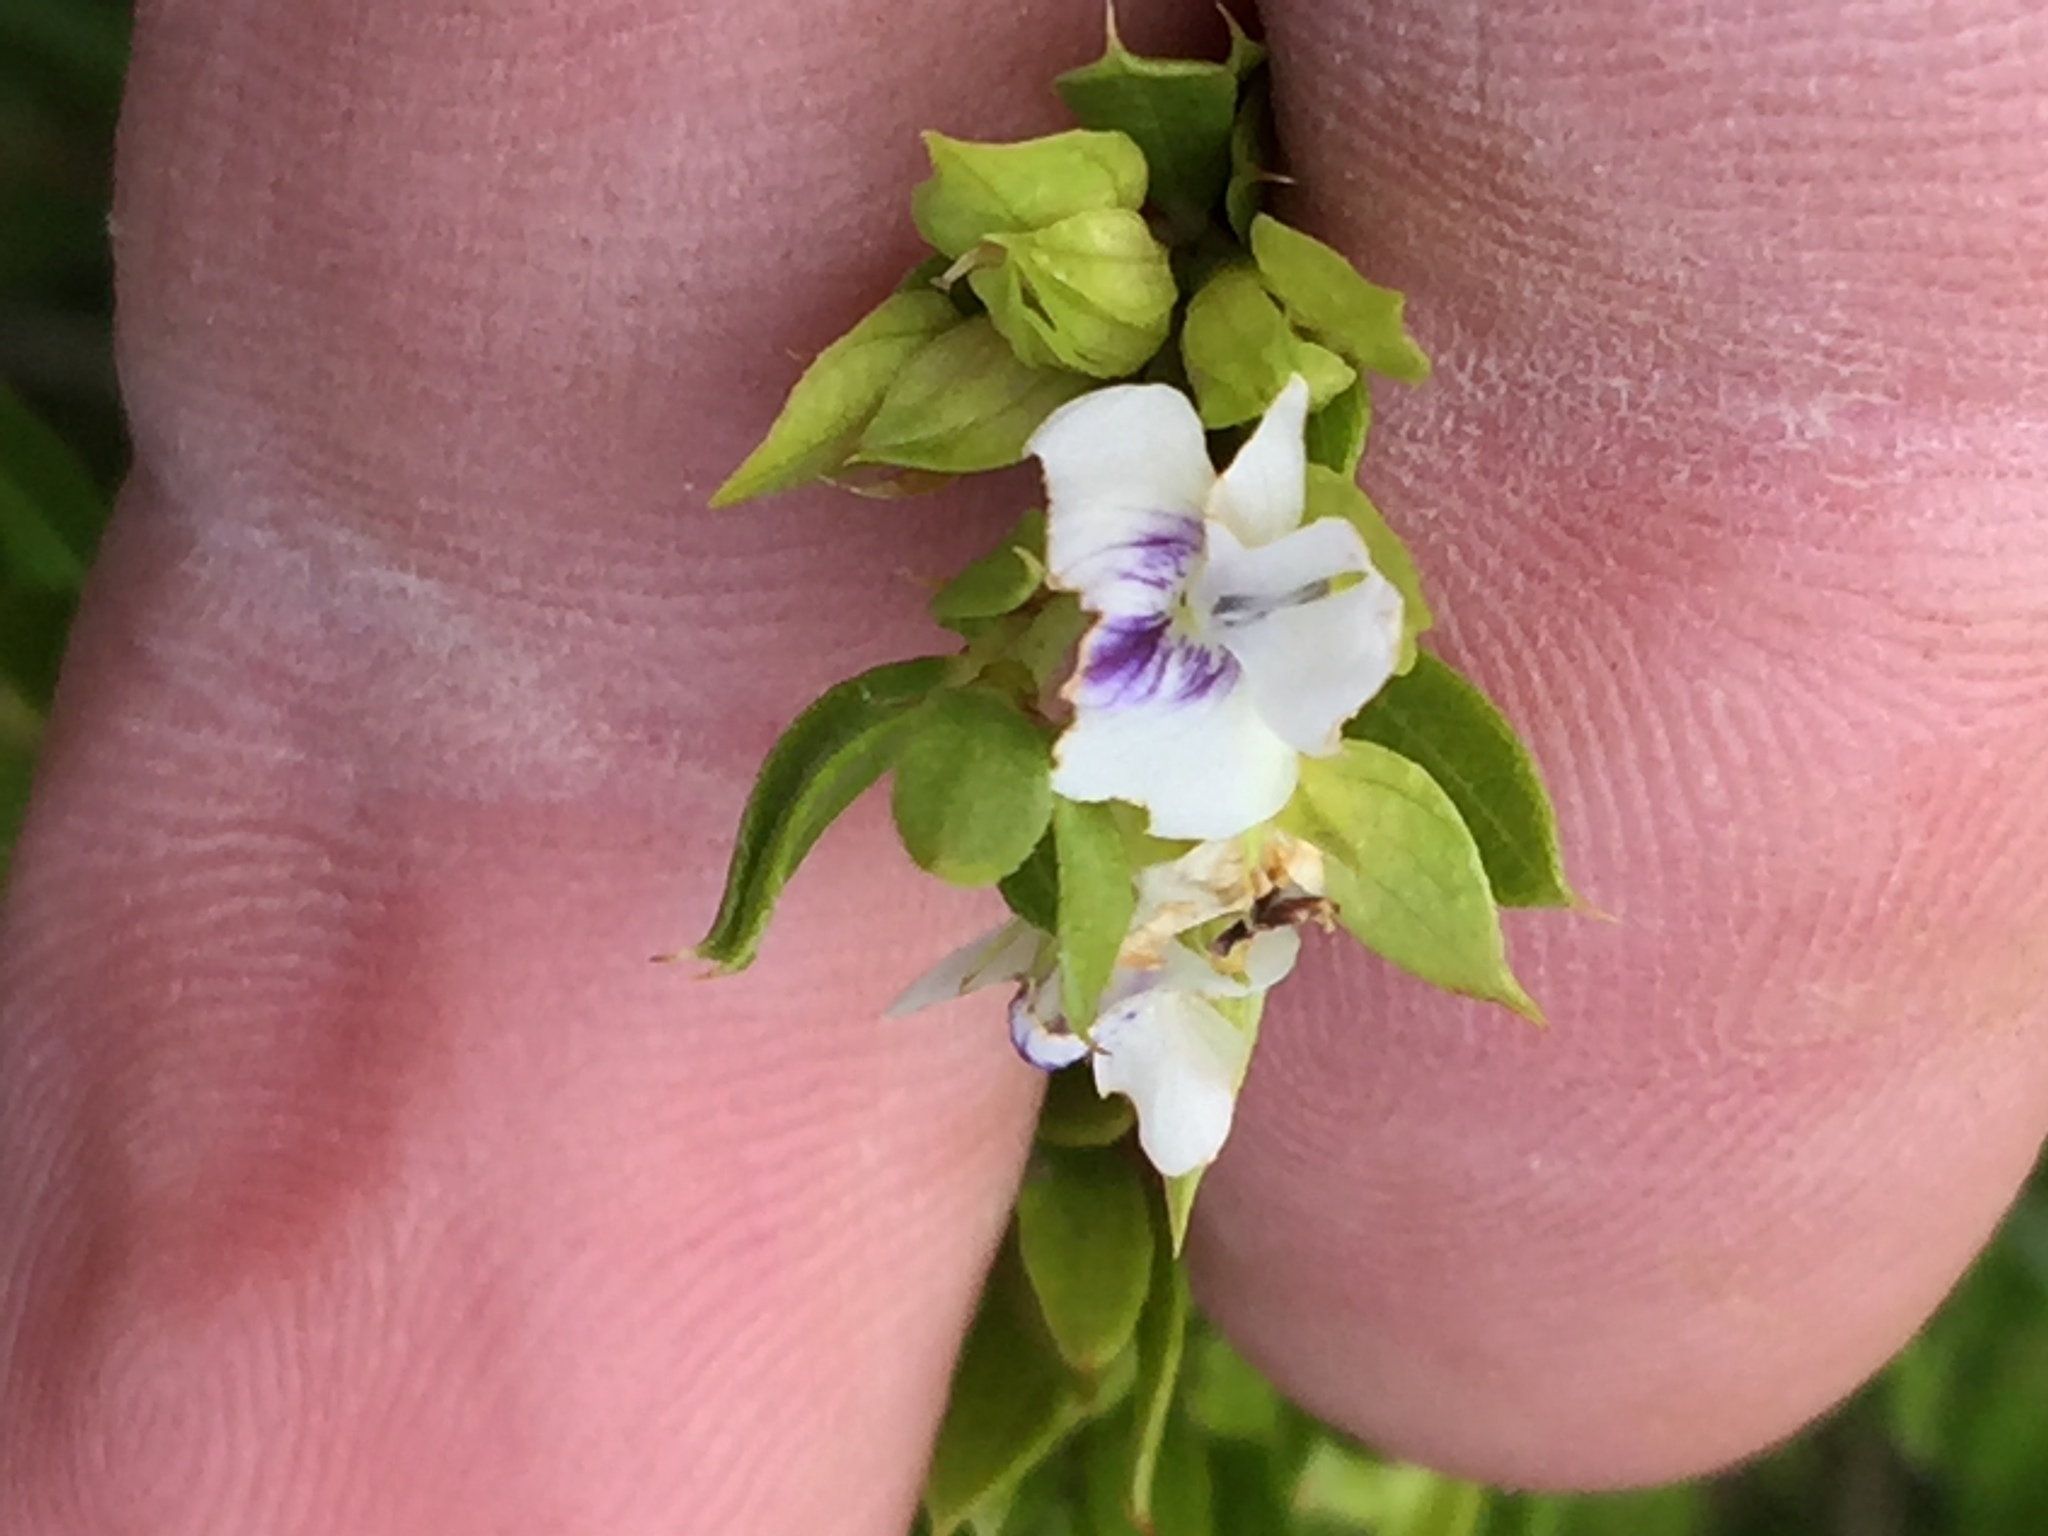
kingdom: Plantae
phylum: Tracheophyta
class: Magnoliopsida
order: Fabales
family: Fabaceae
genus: Psoralea
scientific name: Psoralea heterosepala
